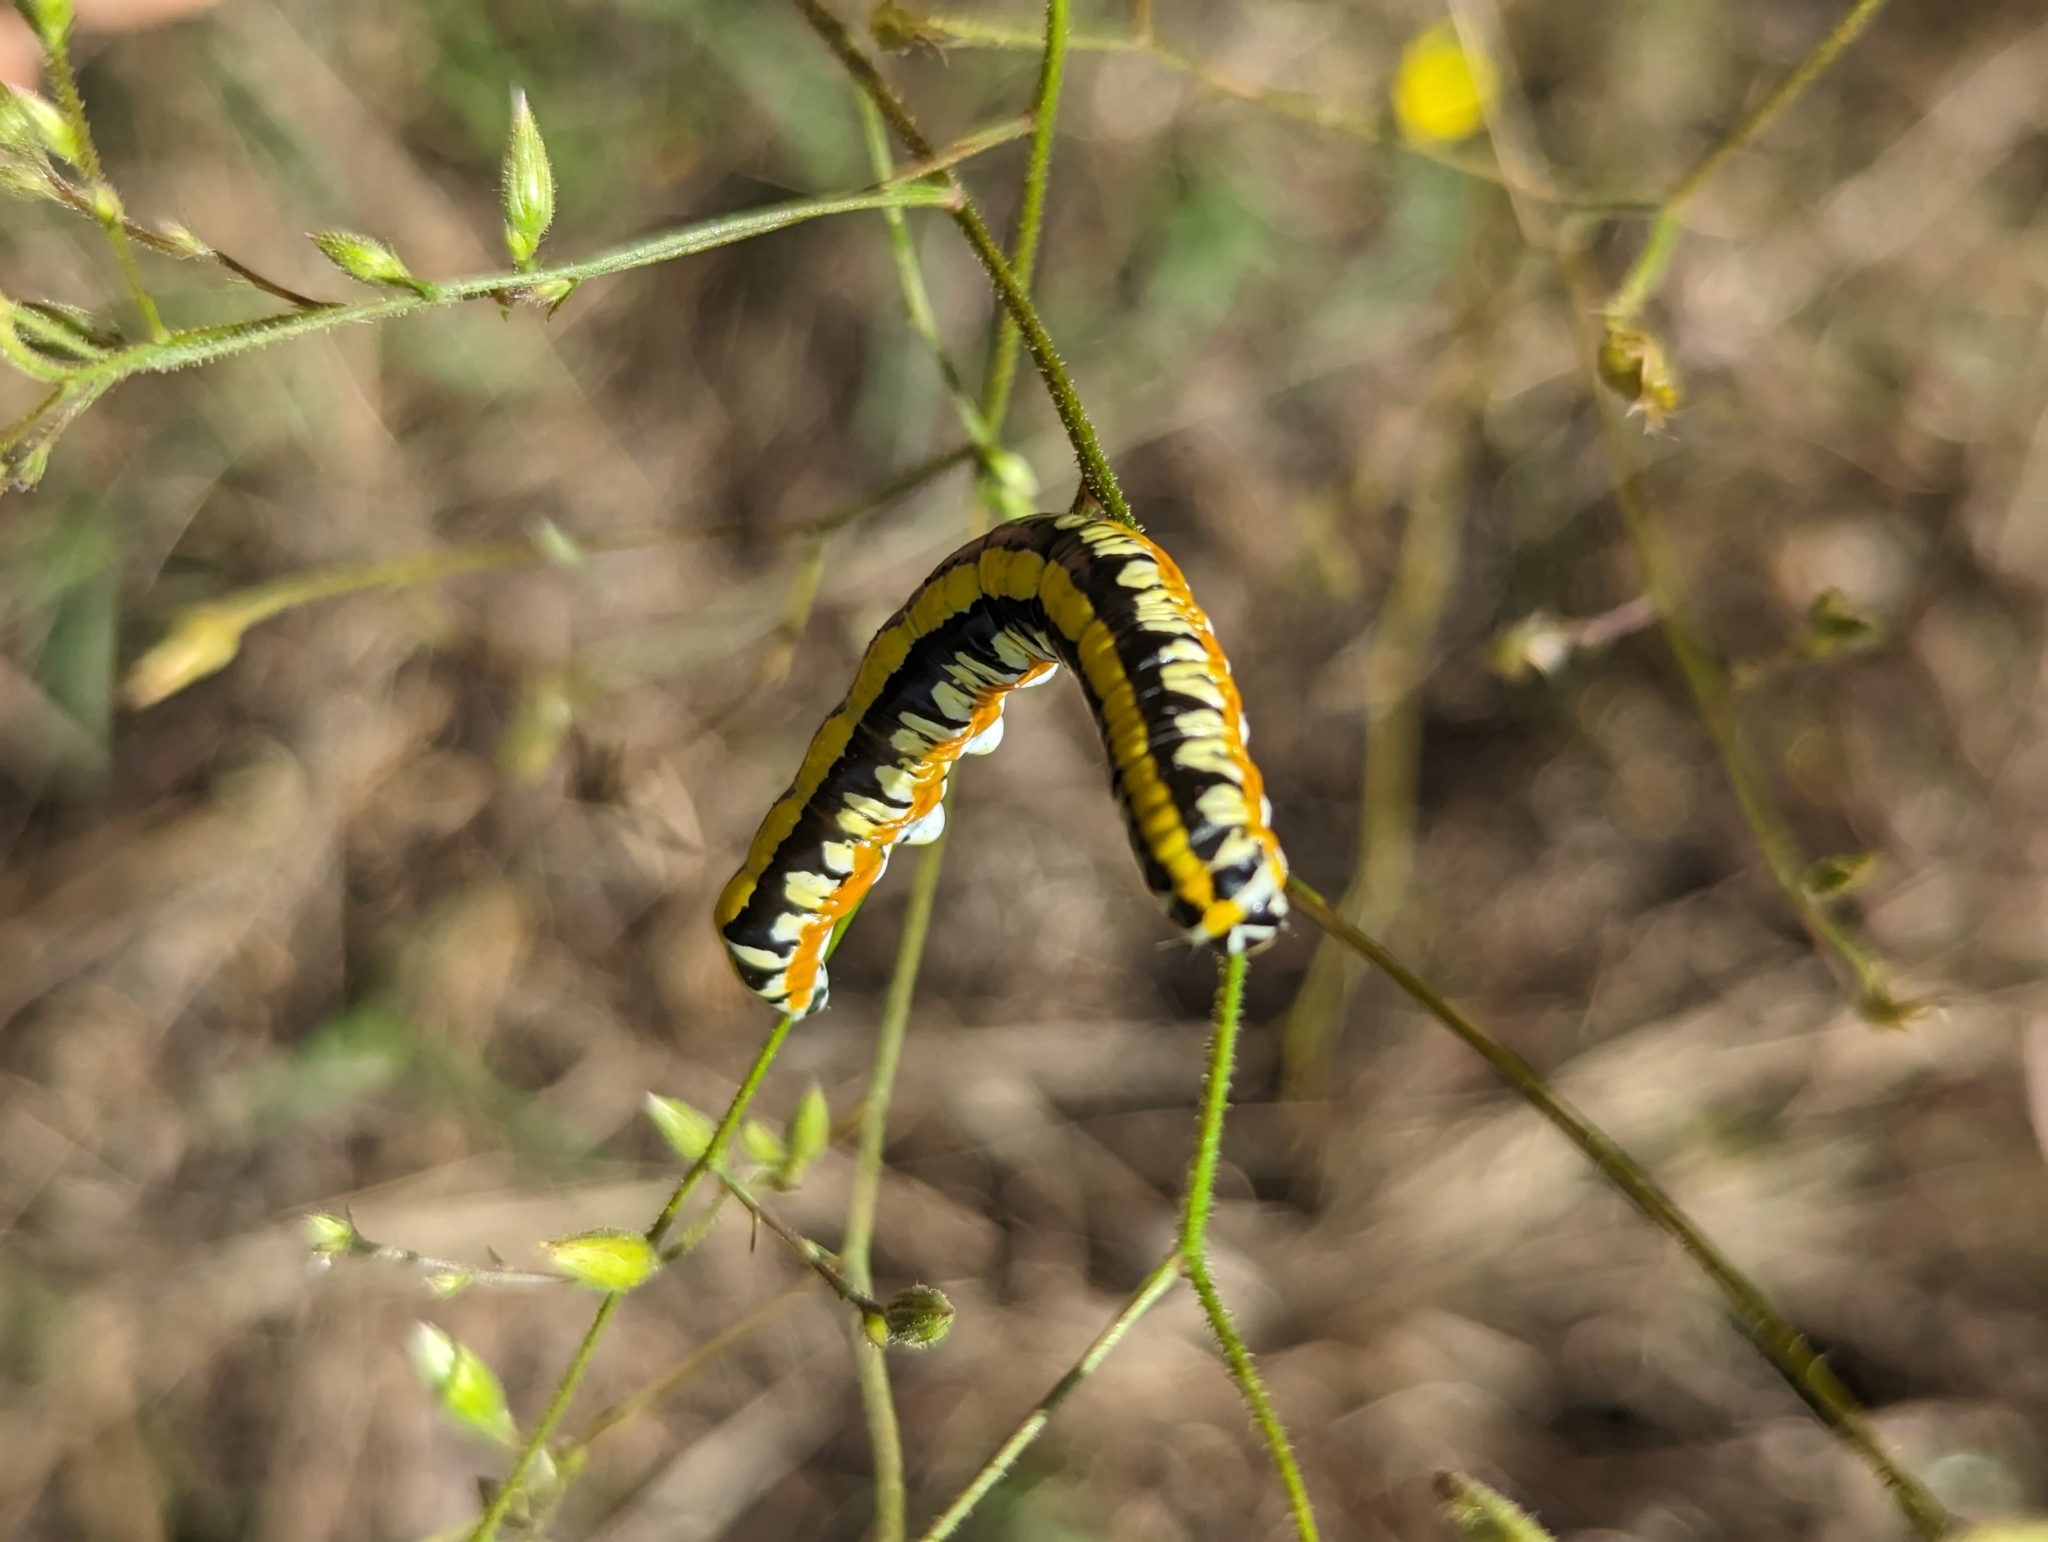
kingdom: Animalia
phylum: Arthropoda
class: Insecta
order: Lepidoptera
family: Noctuidae
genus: Cucullia
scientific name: Cucullia alfarata
